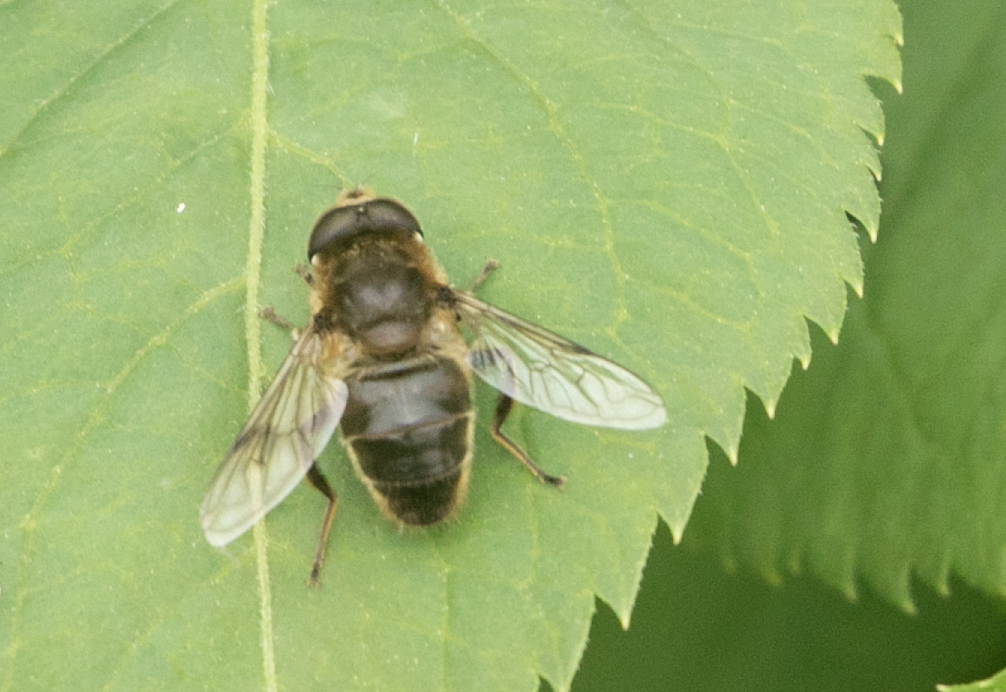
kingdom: Animalia
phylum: Arthropoda
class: Insecta
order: Diptera
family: Syrphidae
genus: Eristalis
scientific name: Eristalis tenax
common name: Drone fly
